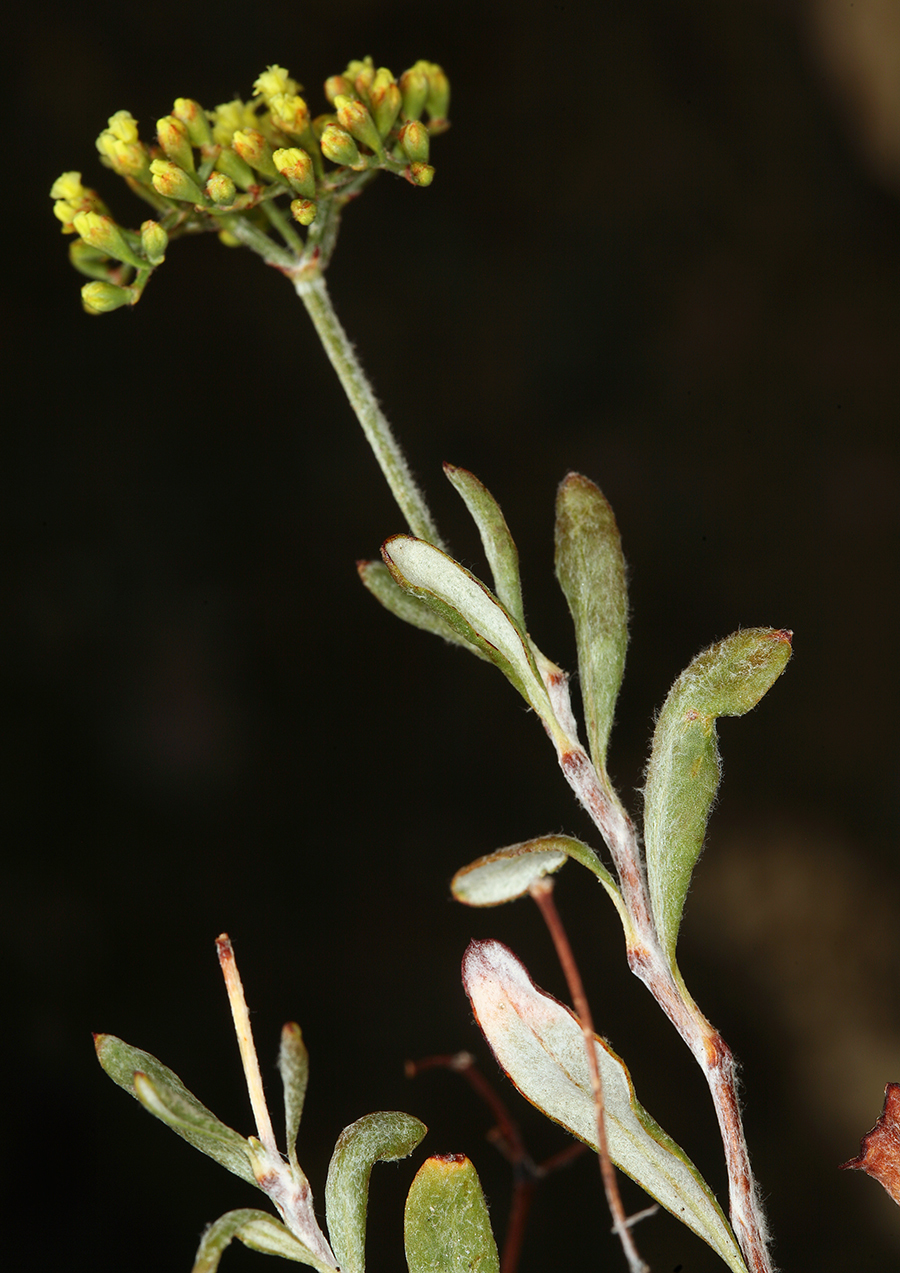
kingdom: Plantae
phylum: Tracheophyta
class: Magnoliopsida
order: Caryophyllales
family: Polygonaceae
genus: Eriogonum
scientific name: Eriogonum microtheca
